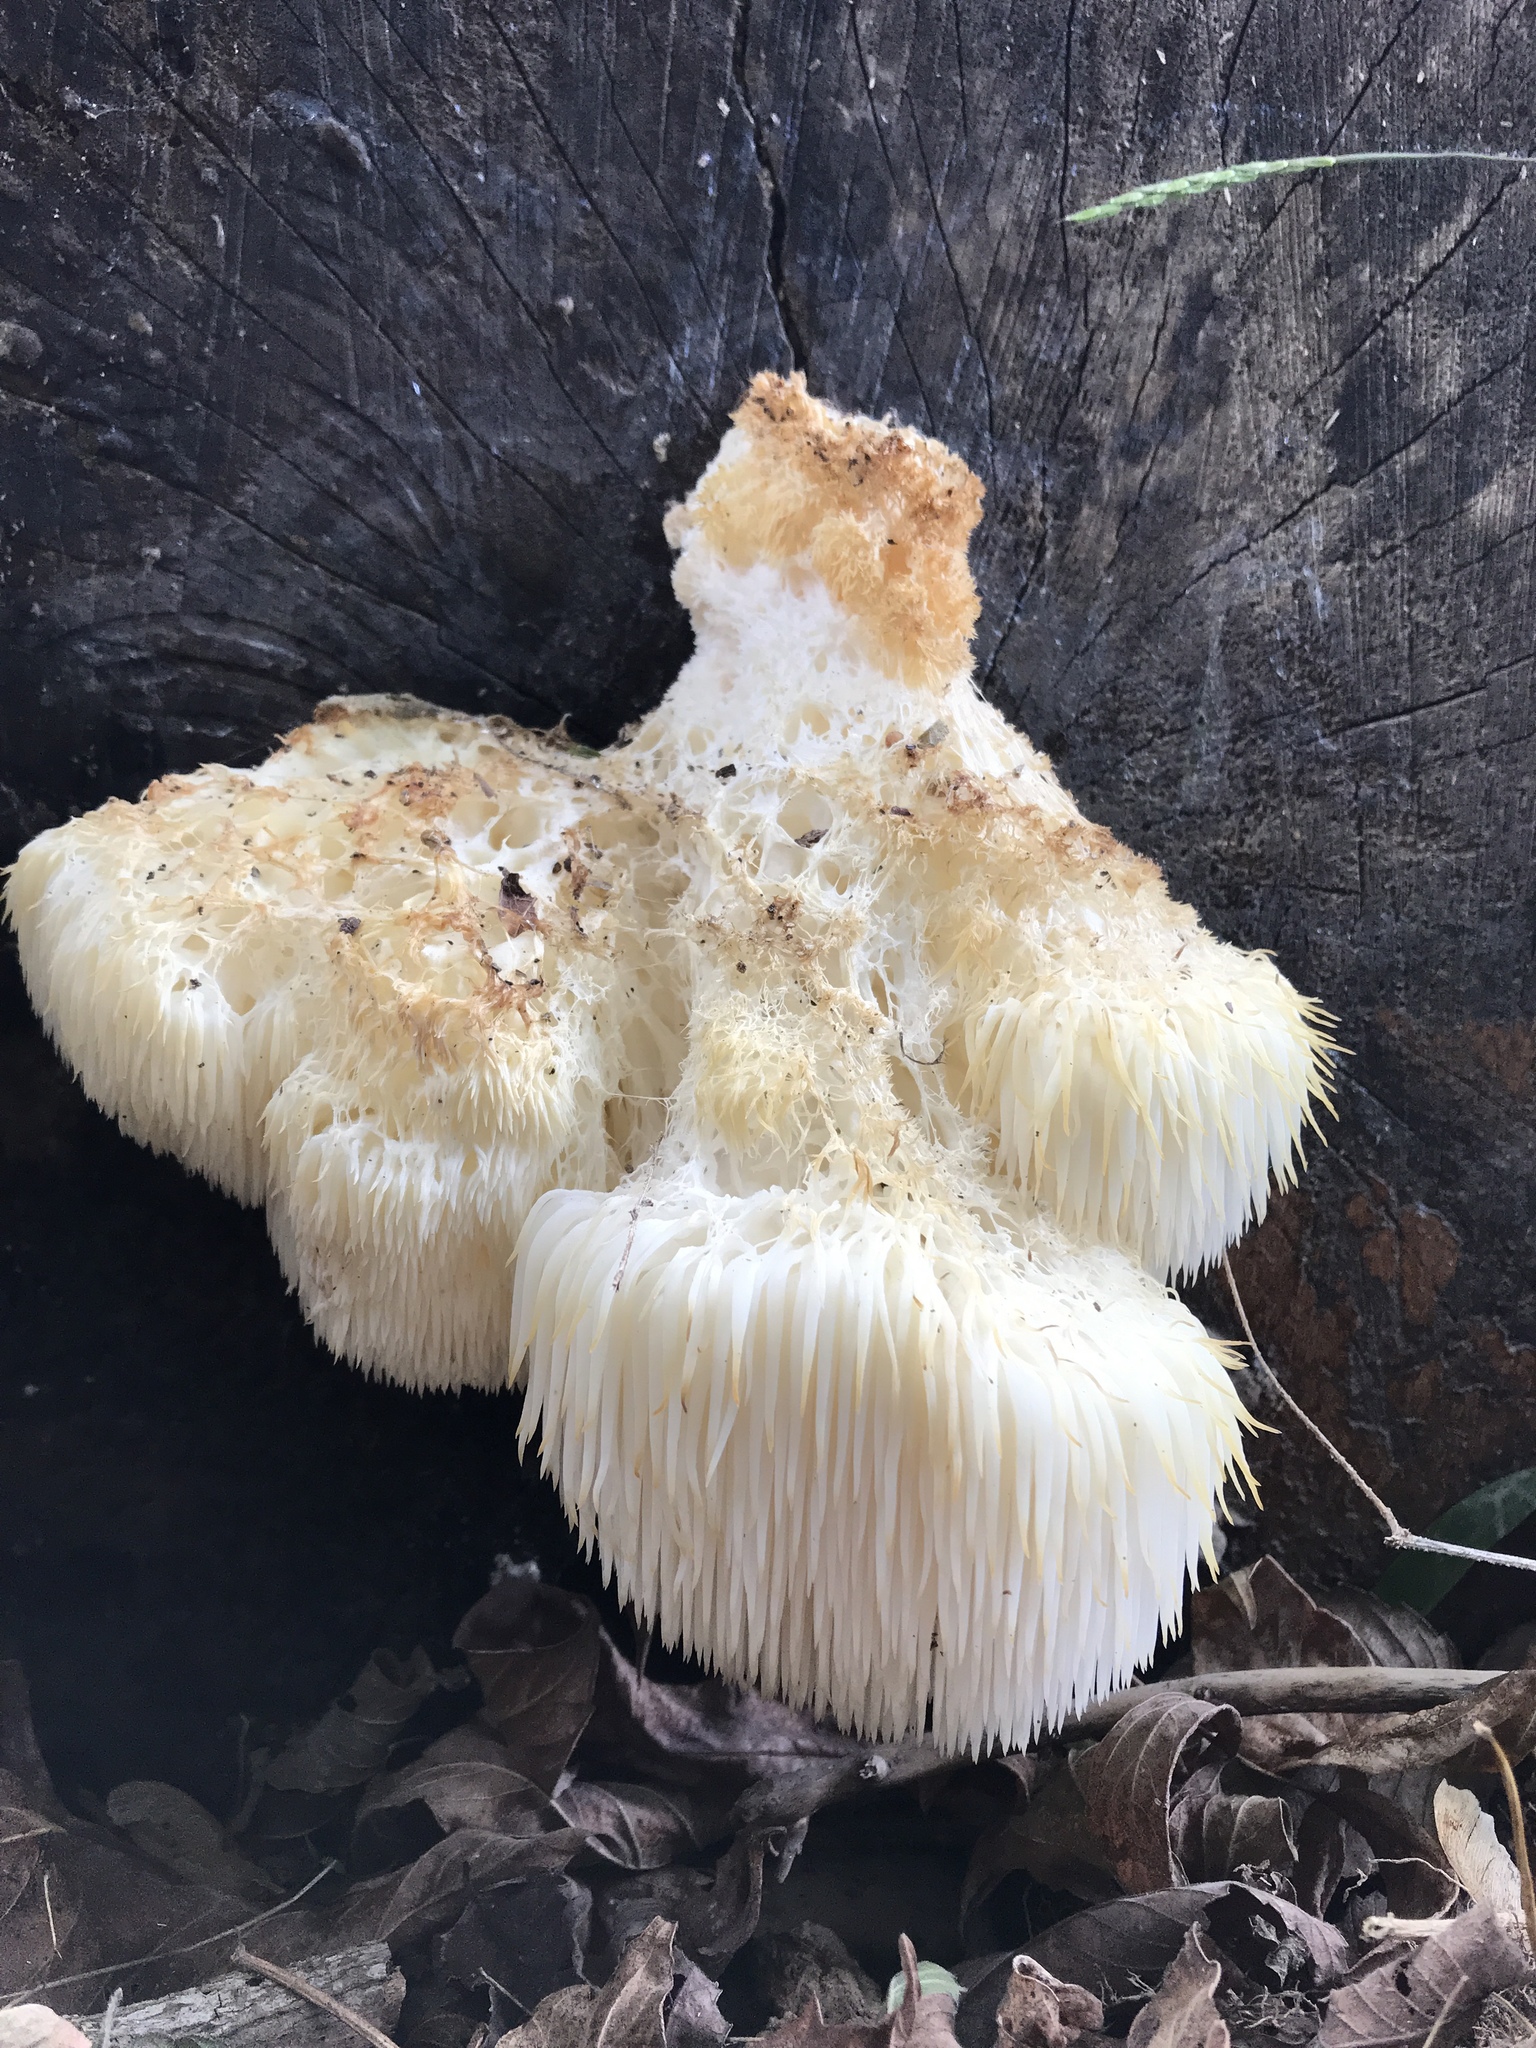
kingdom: Fungi
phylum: Basidiomycota
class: Agaricomycetes
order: Russulales
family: Hericiaceae
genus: Hericium
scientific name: Hericium erinaceus
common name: Bearded tooth
